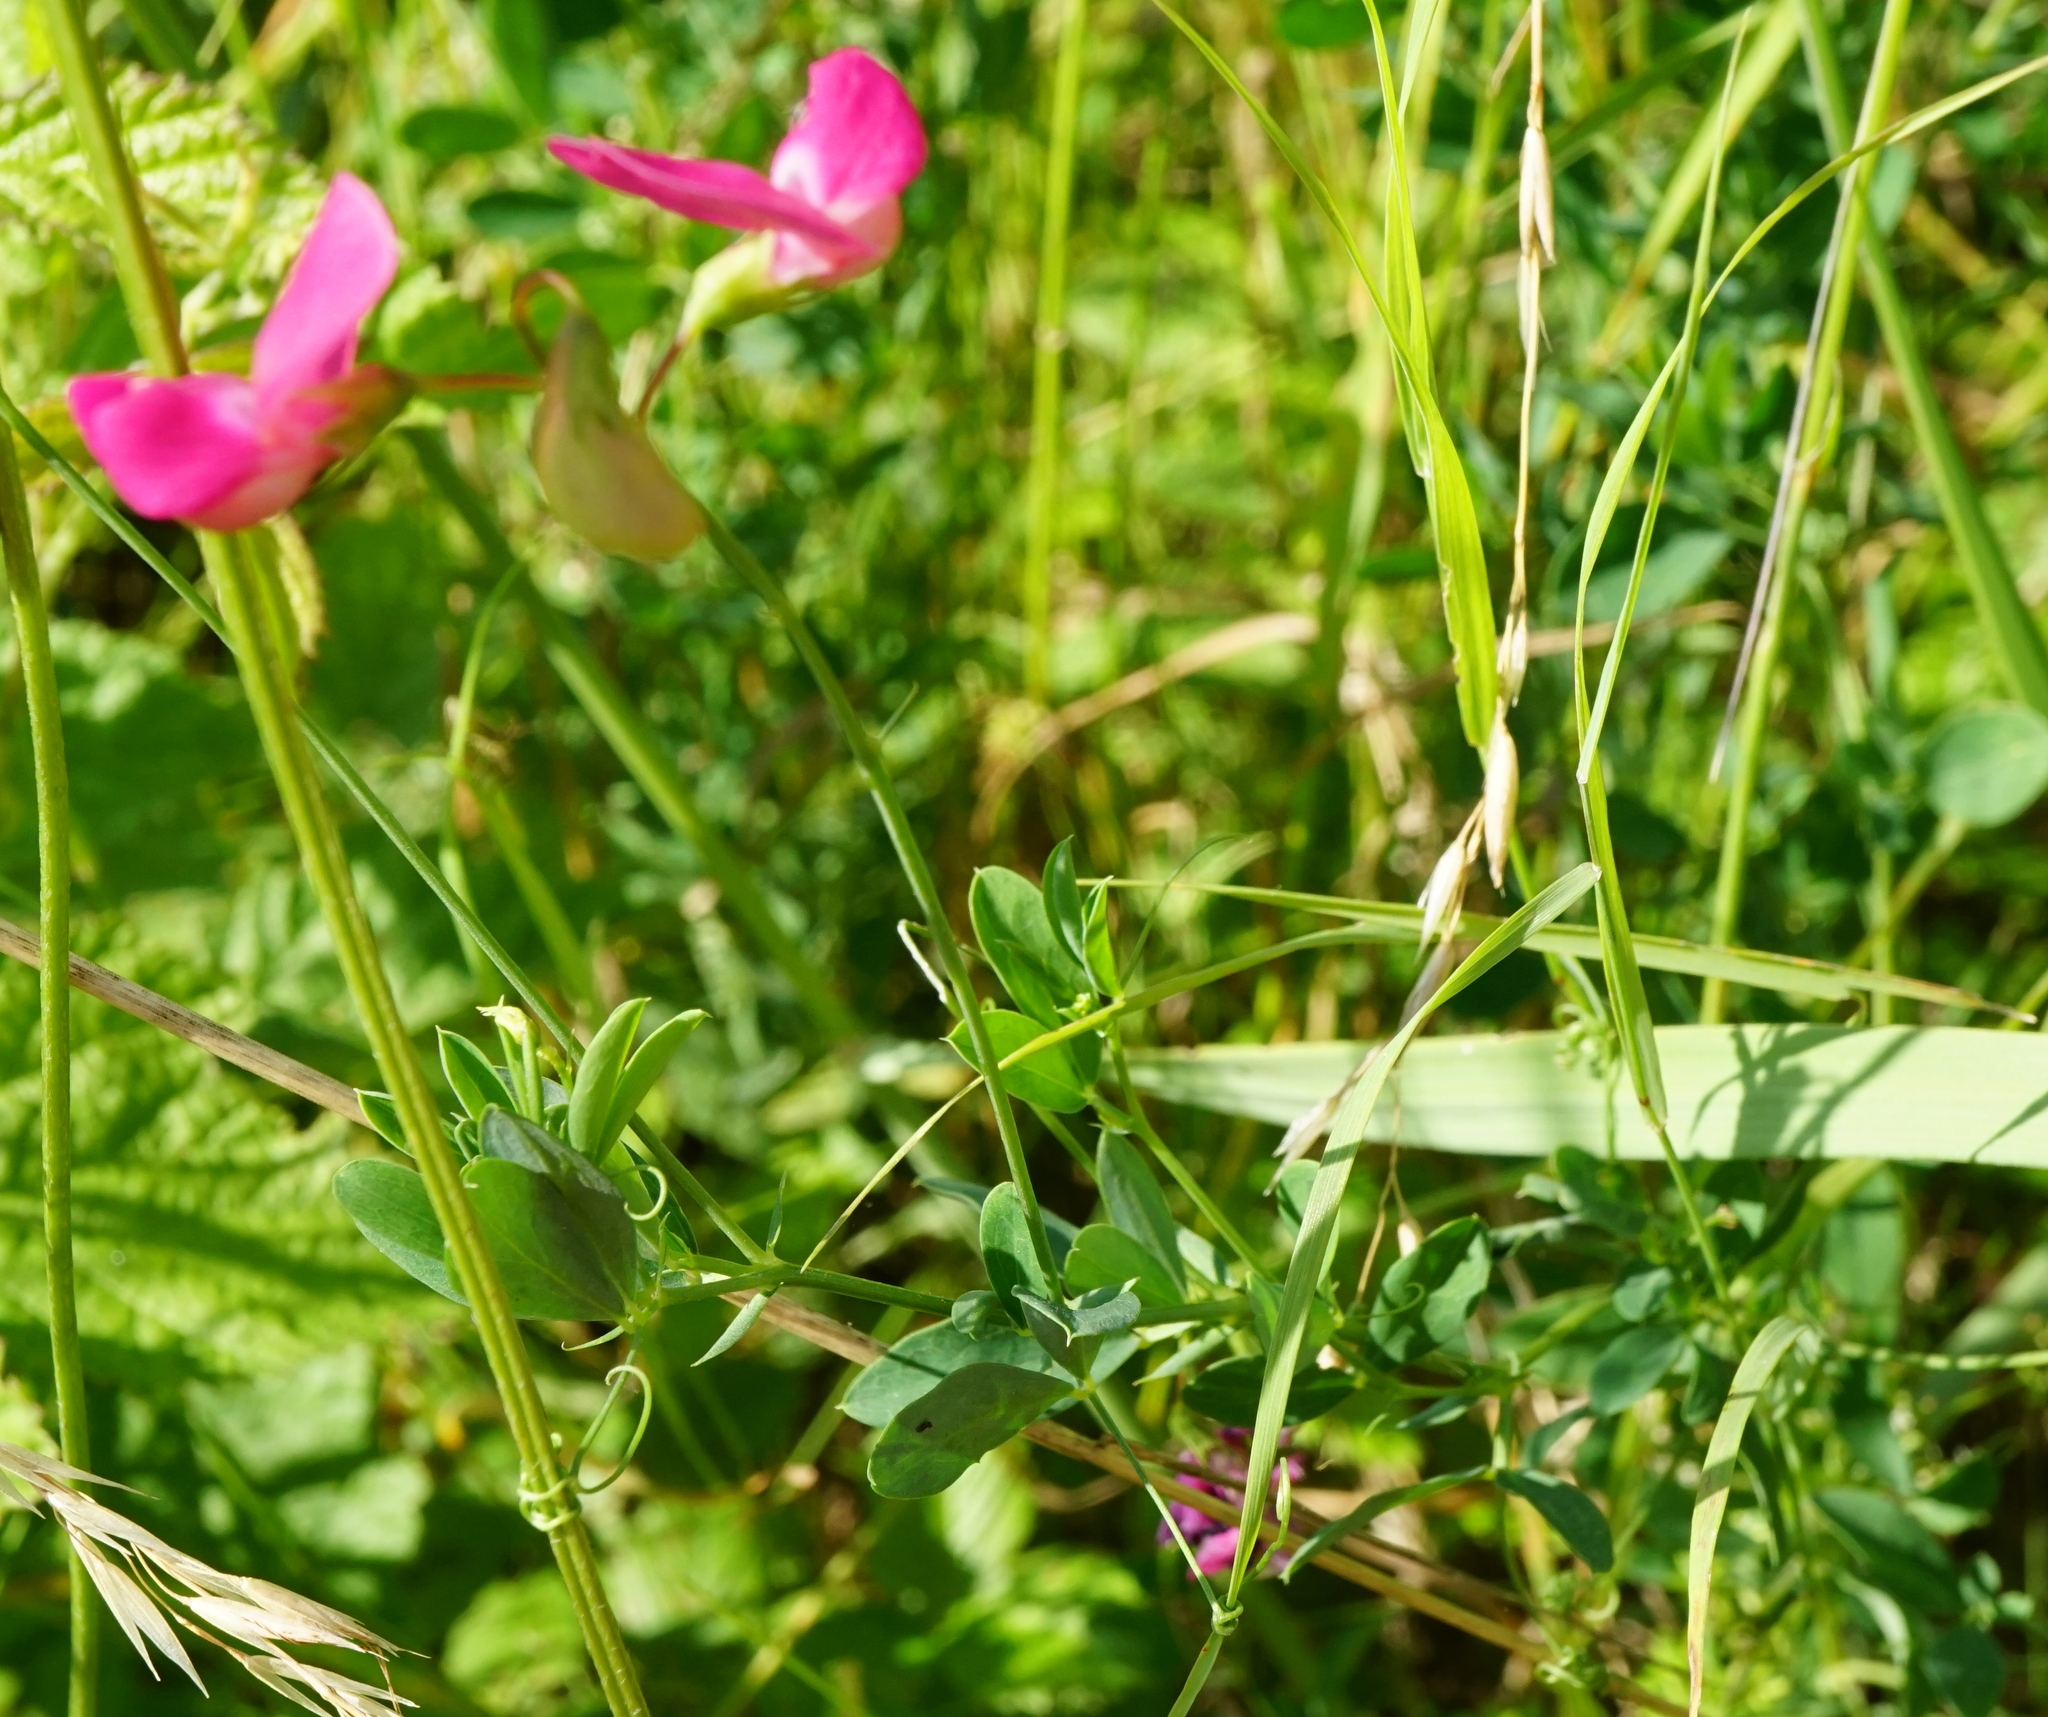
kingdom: Plantae
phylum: Tracheophyta
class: Magnoliopsida
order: Fabales
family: Fabaceae
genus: Lathyrus
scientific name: Lathyrus tuberosus
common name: Tuberous pea
